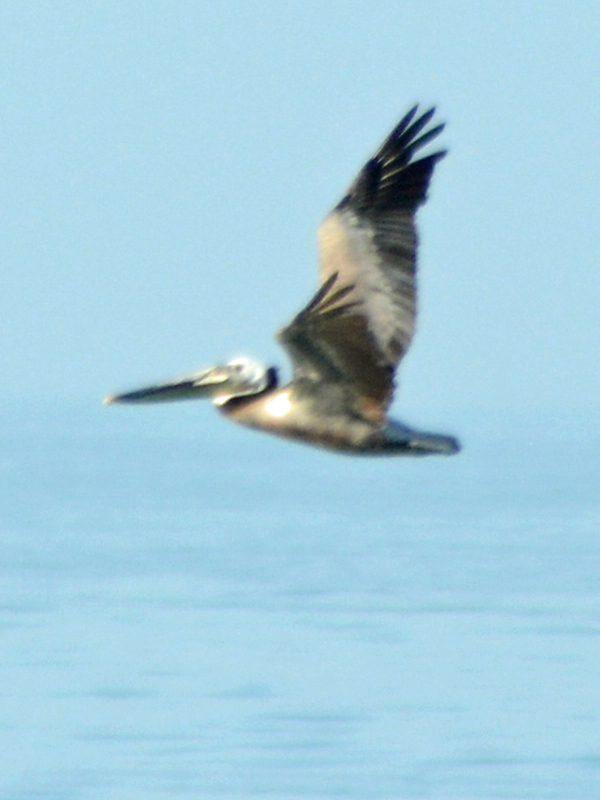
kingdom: Animalia
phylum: Chordata
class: Aves
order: Pelecaniformes
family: Pelecanidae
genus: Pelecanus
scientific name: Pelecanus occidentalis
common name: Brown pelican
